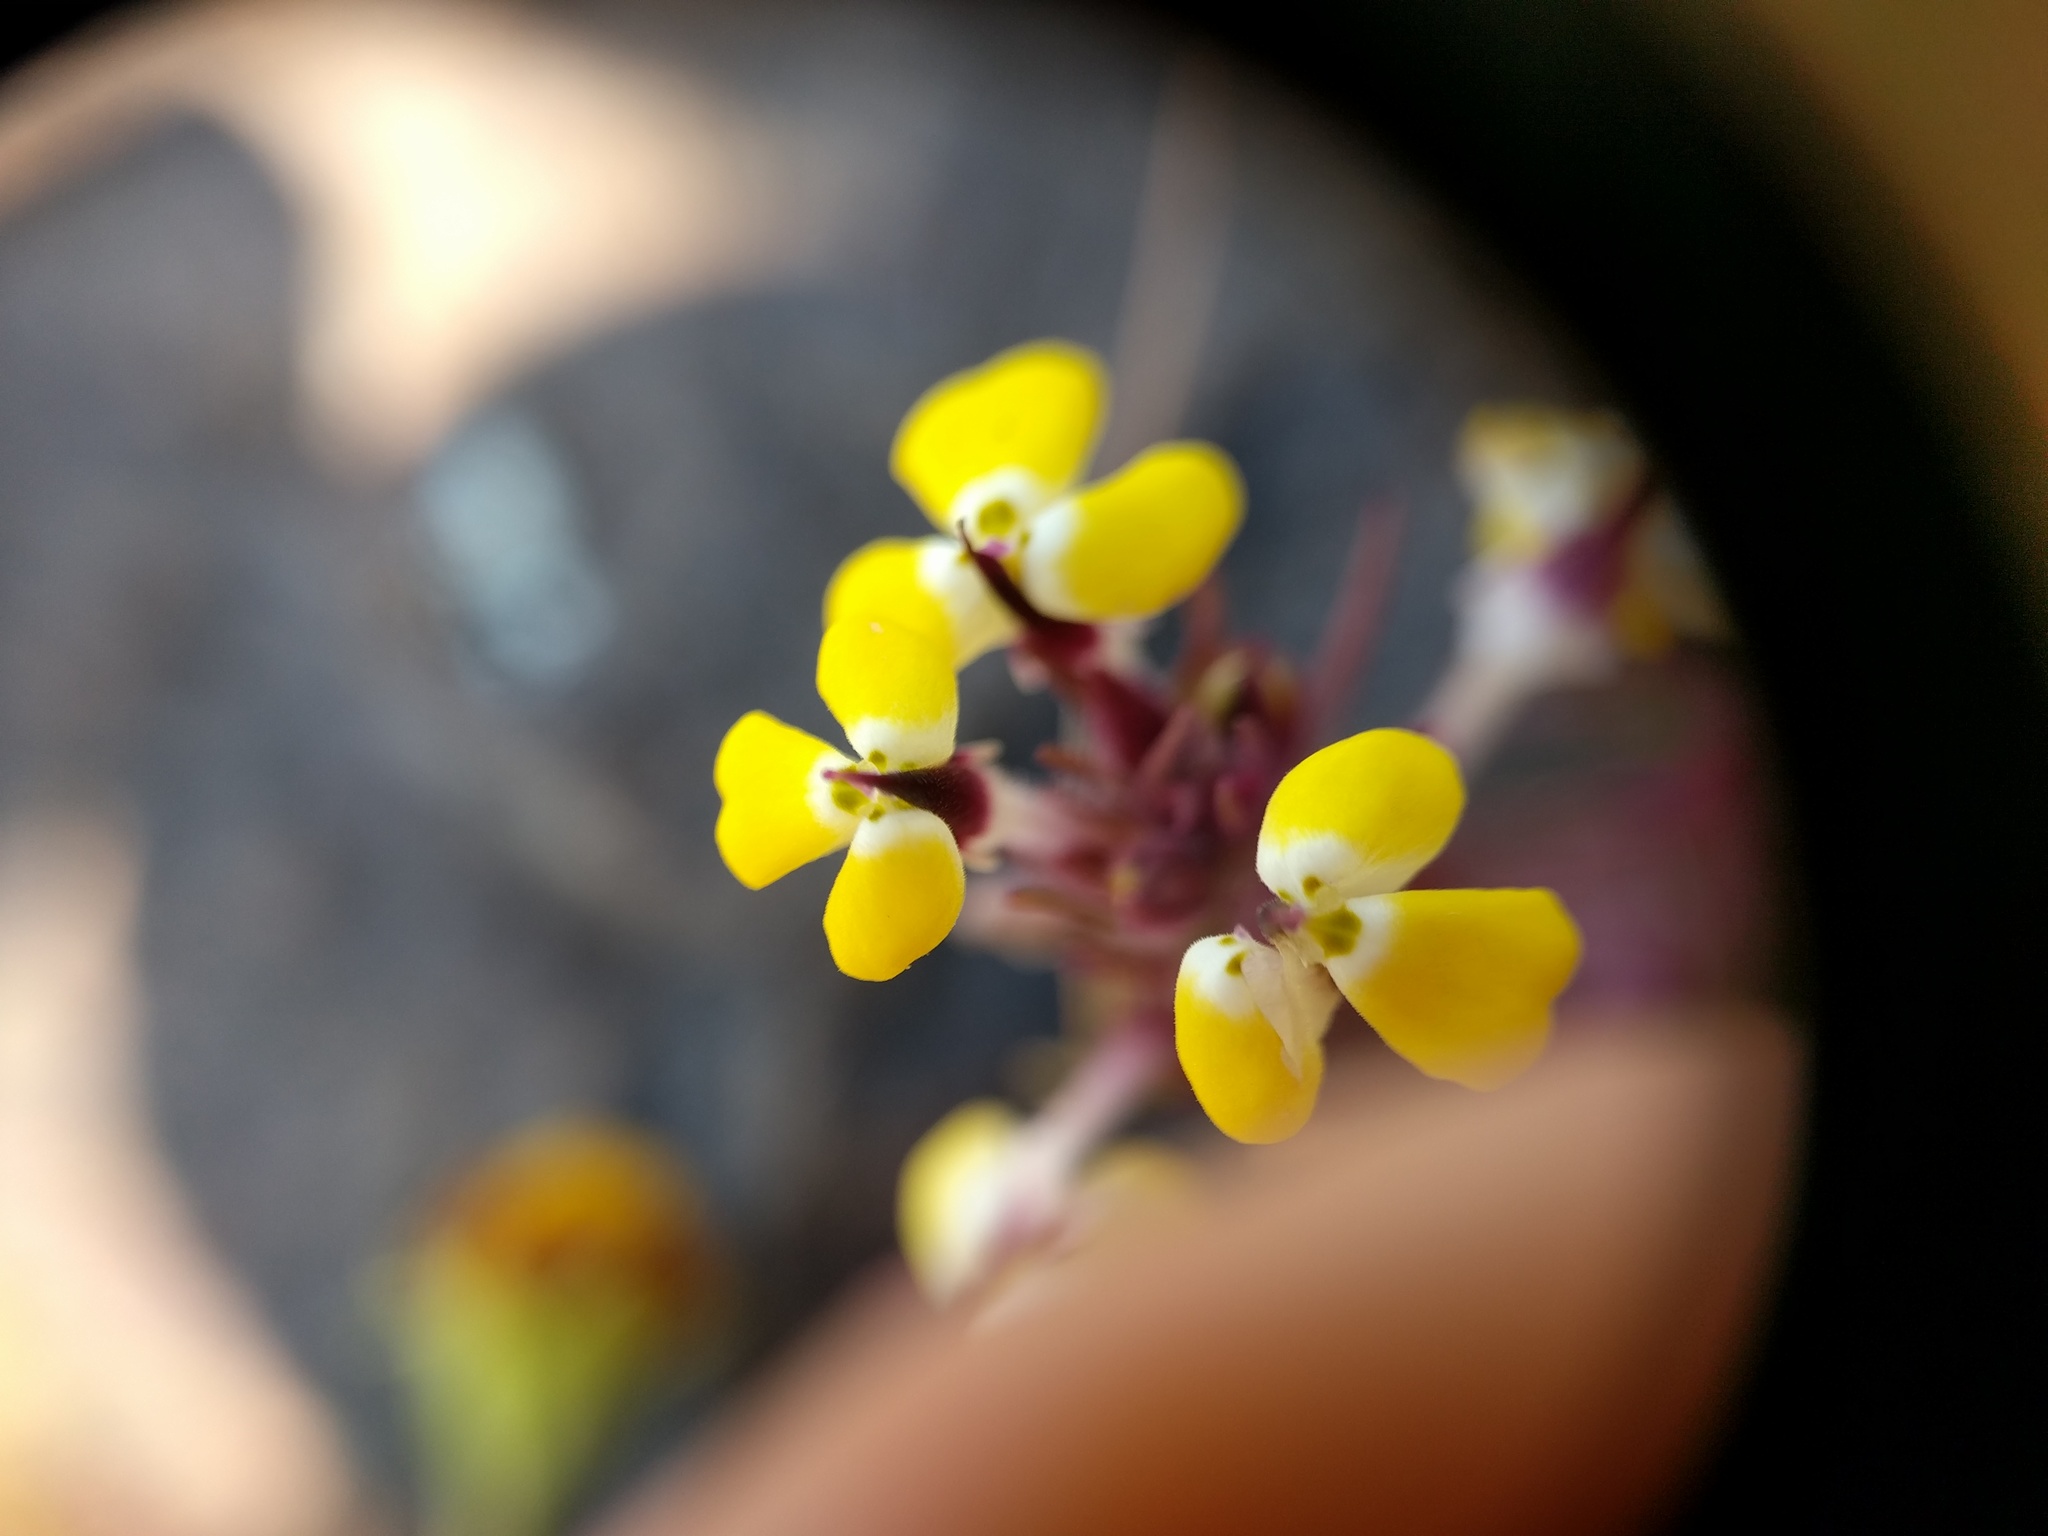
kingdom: Plantae
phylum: Tracheophyta
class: Magnoliopsida
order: Lamiales
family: Orobanchaceae
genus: Triphysaria
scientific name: Triphysaria eriantha
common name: Johnny-tuck
